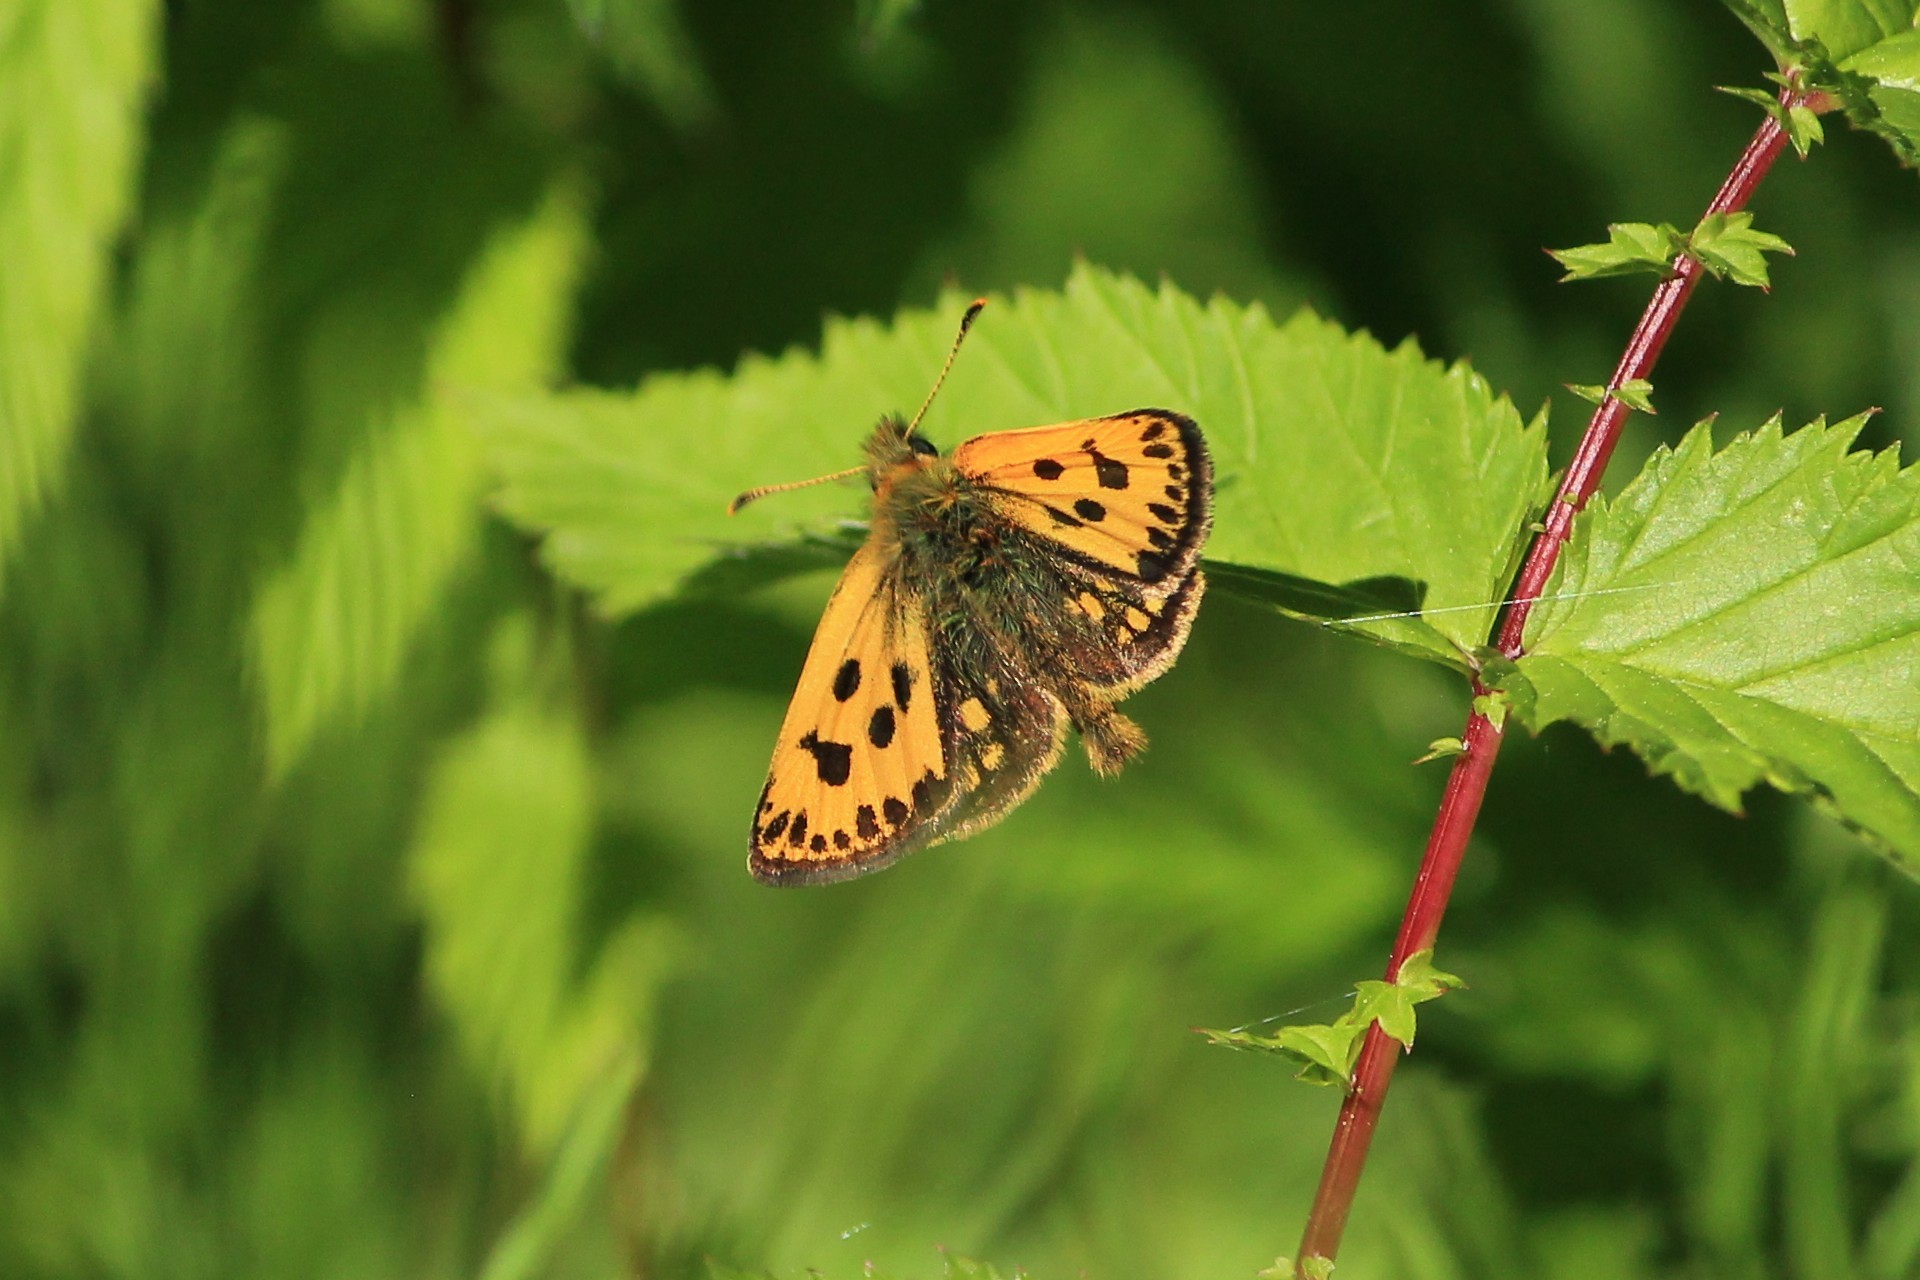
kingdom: Animalia
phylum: Arthropoda
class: Insecta
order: Lepidoptera
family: Hesperiidae
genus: Carterocephalus
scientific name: Carterocephalus silvicola
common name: Northern chequered skipper
